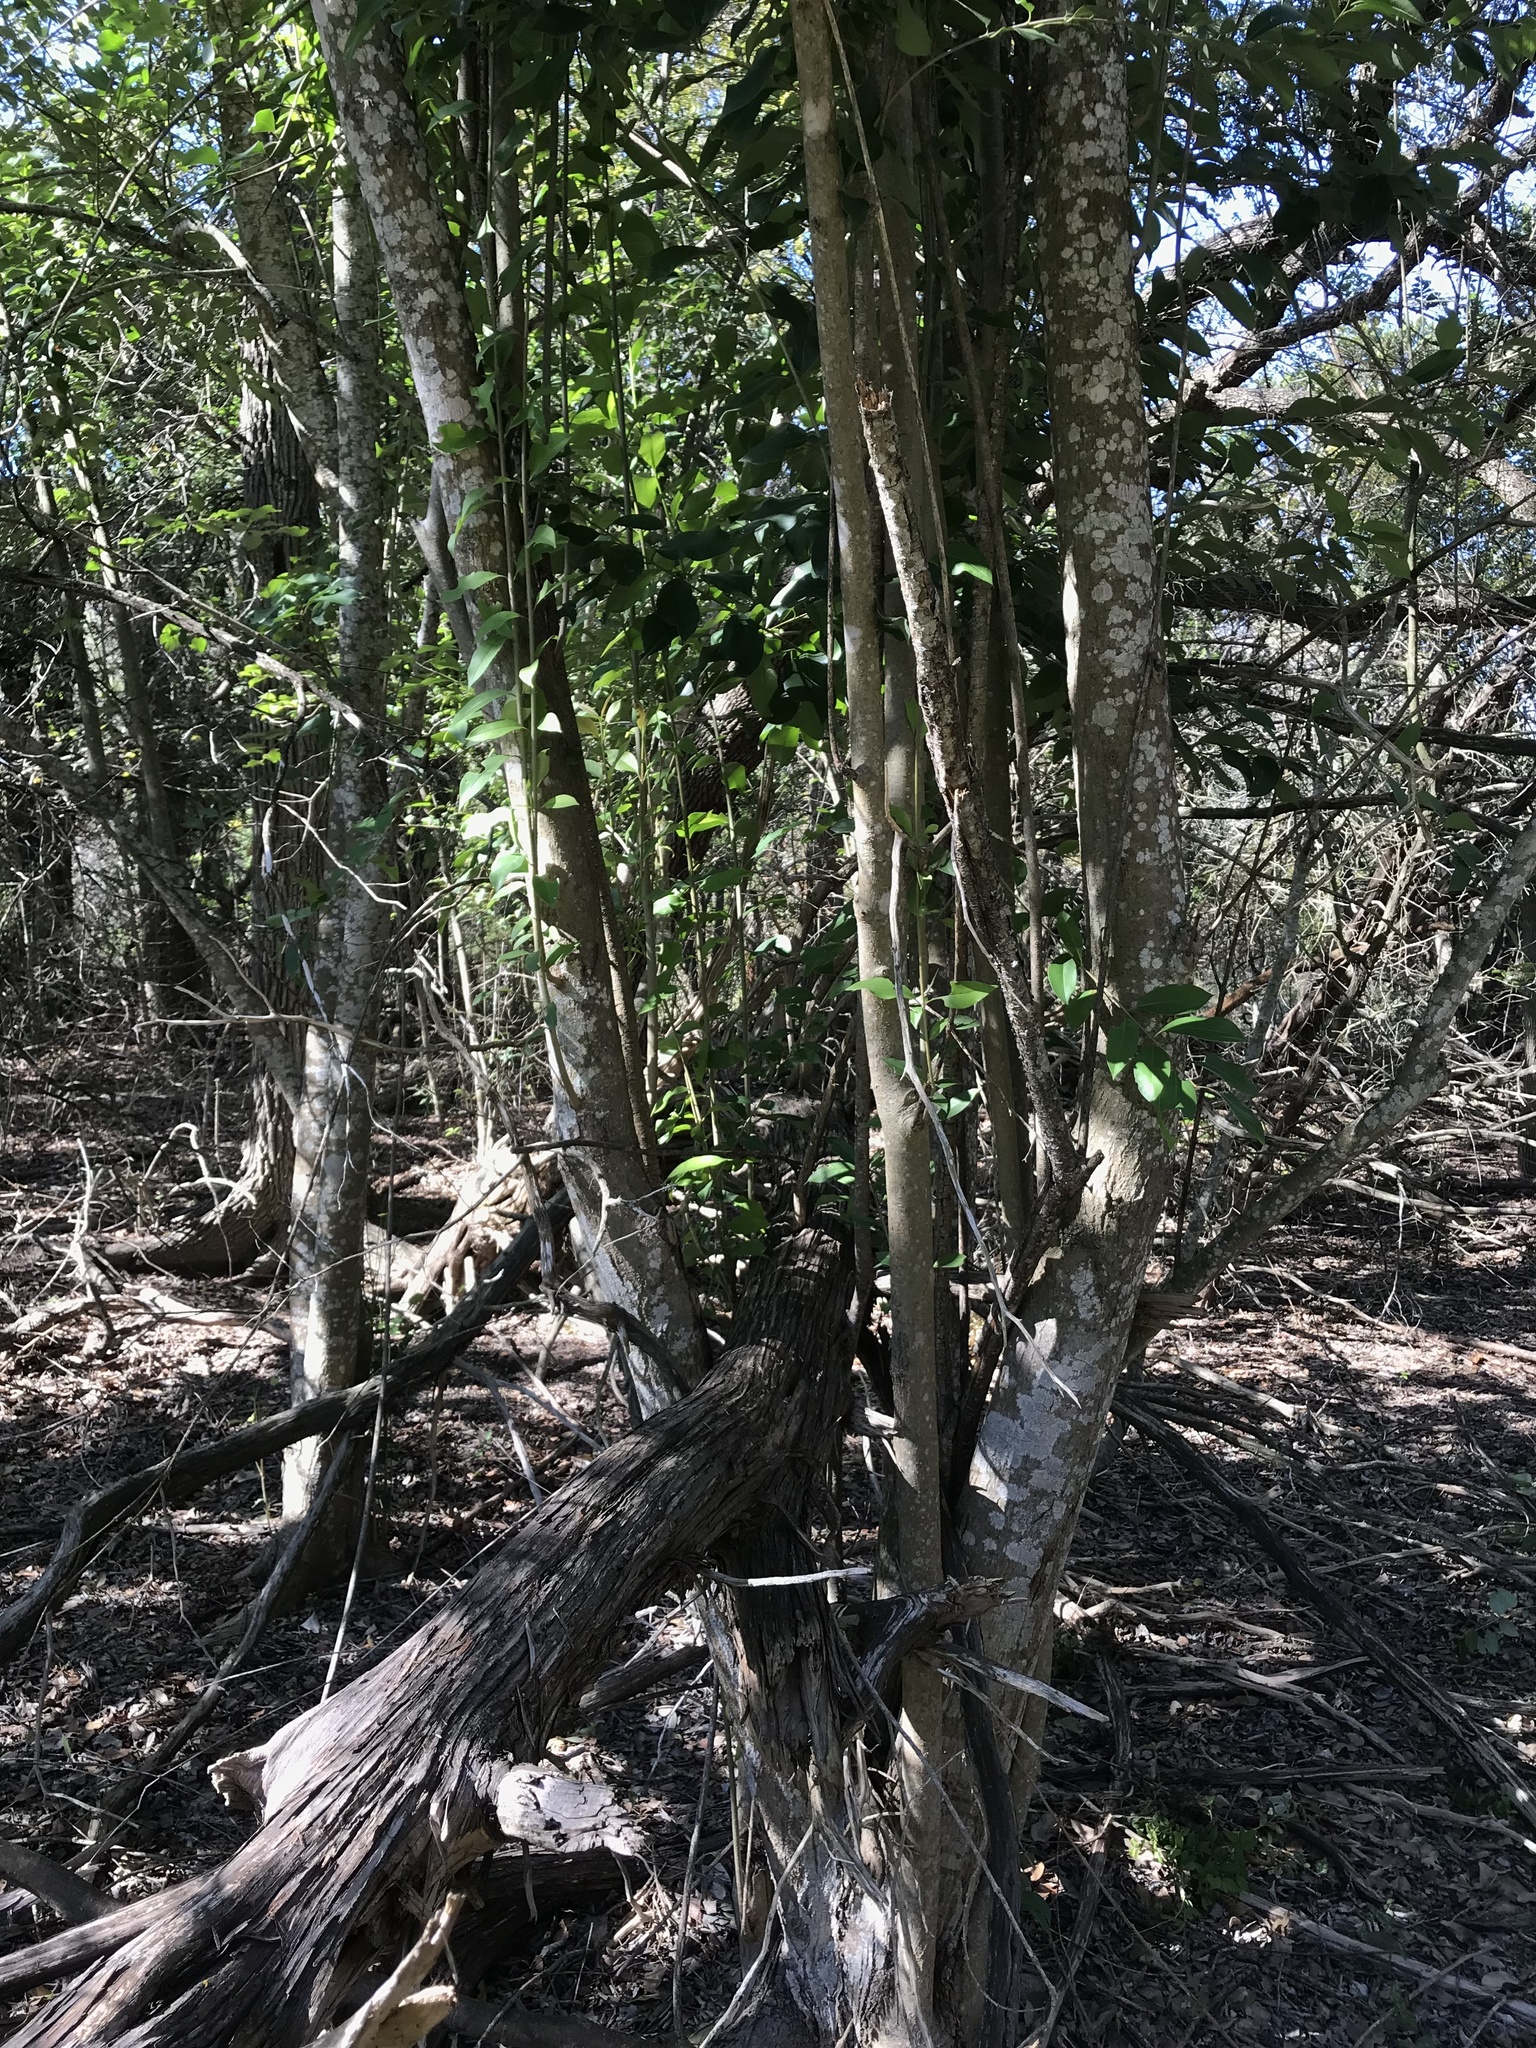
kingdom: Plantae
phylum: Tracheophyta
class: Magnoliopsida
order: Lamiales
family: Oleaceae
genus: Ligustrum
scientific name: Ligustrum lucidum
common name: Glossy privet
